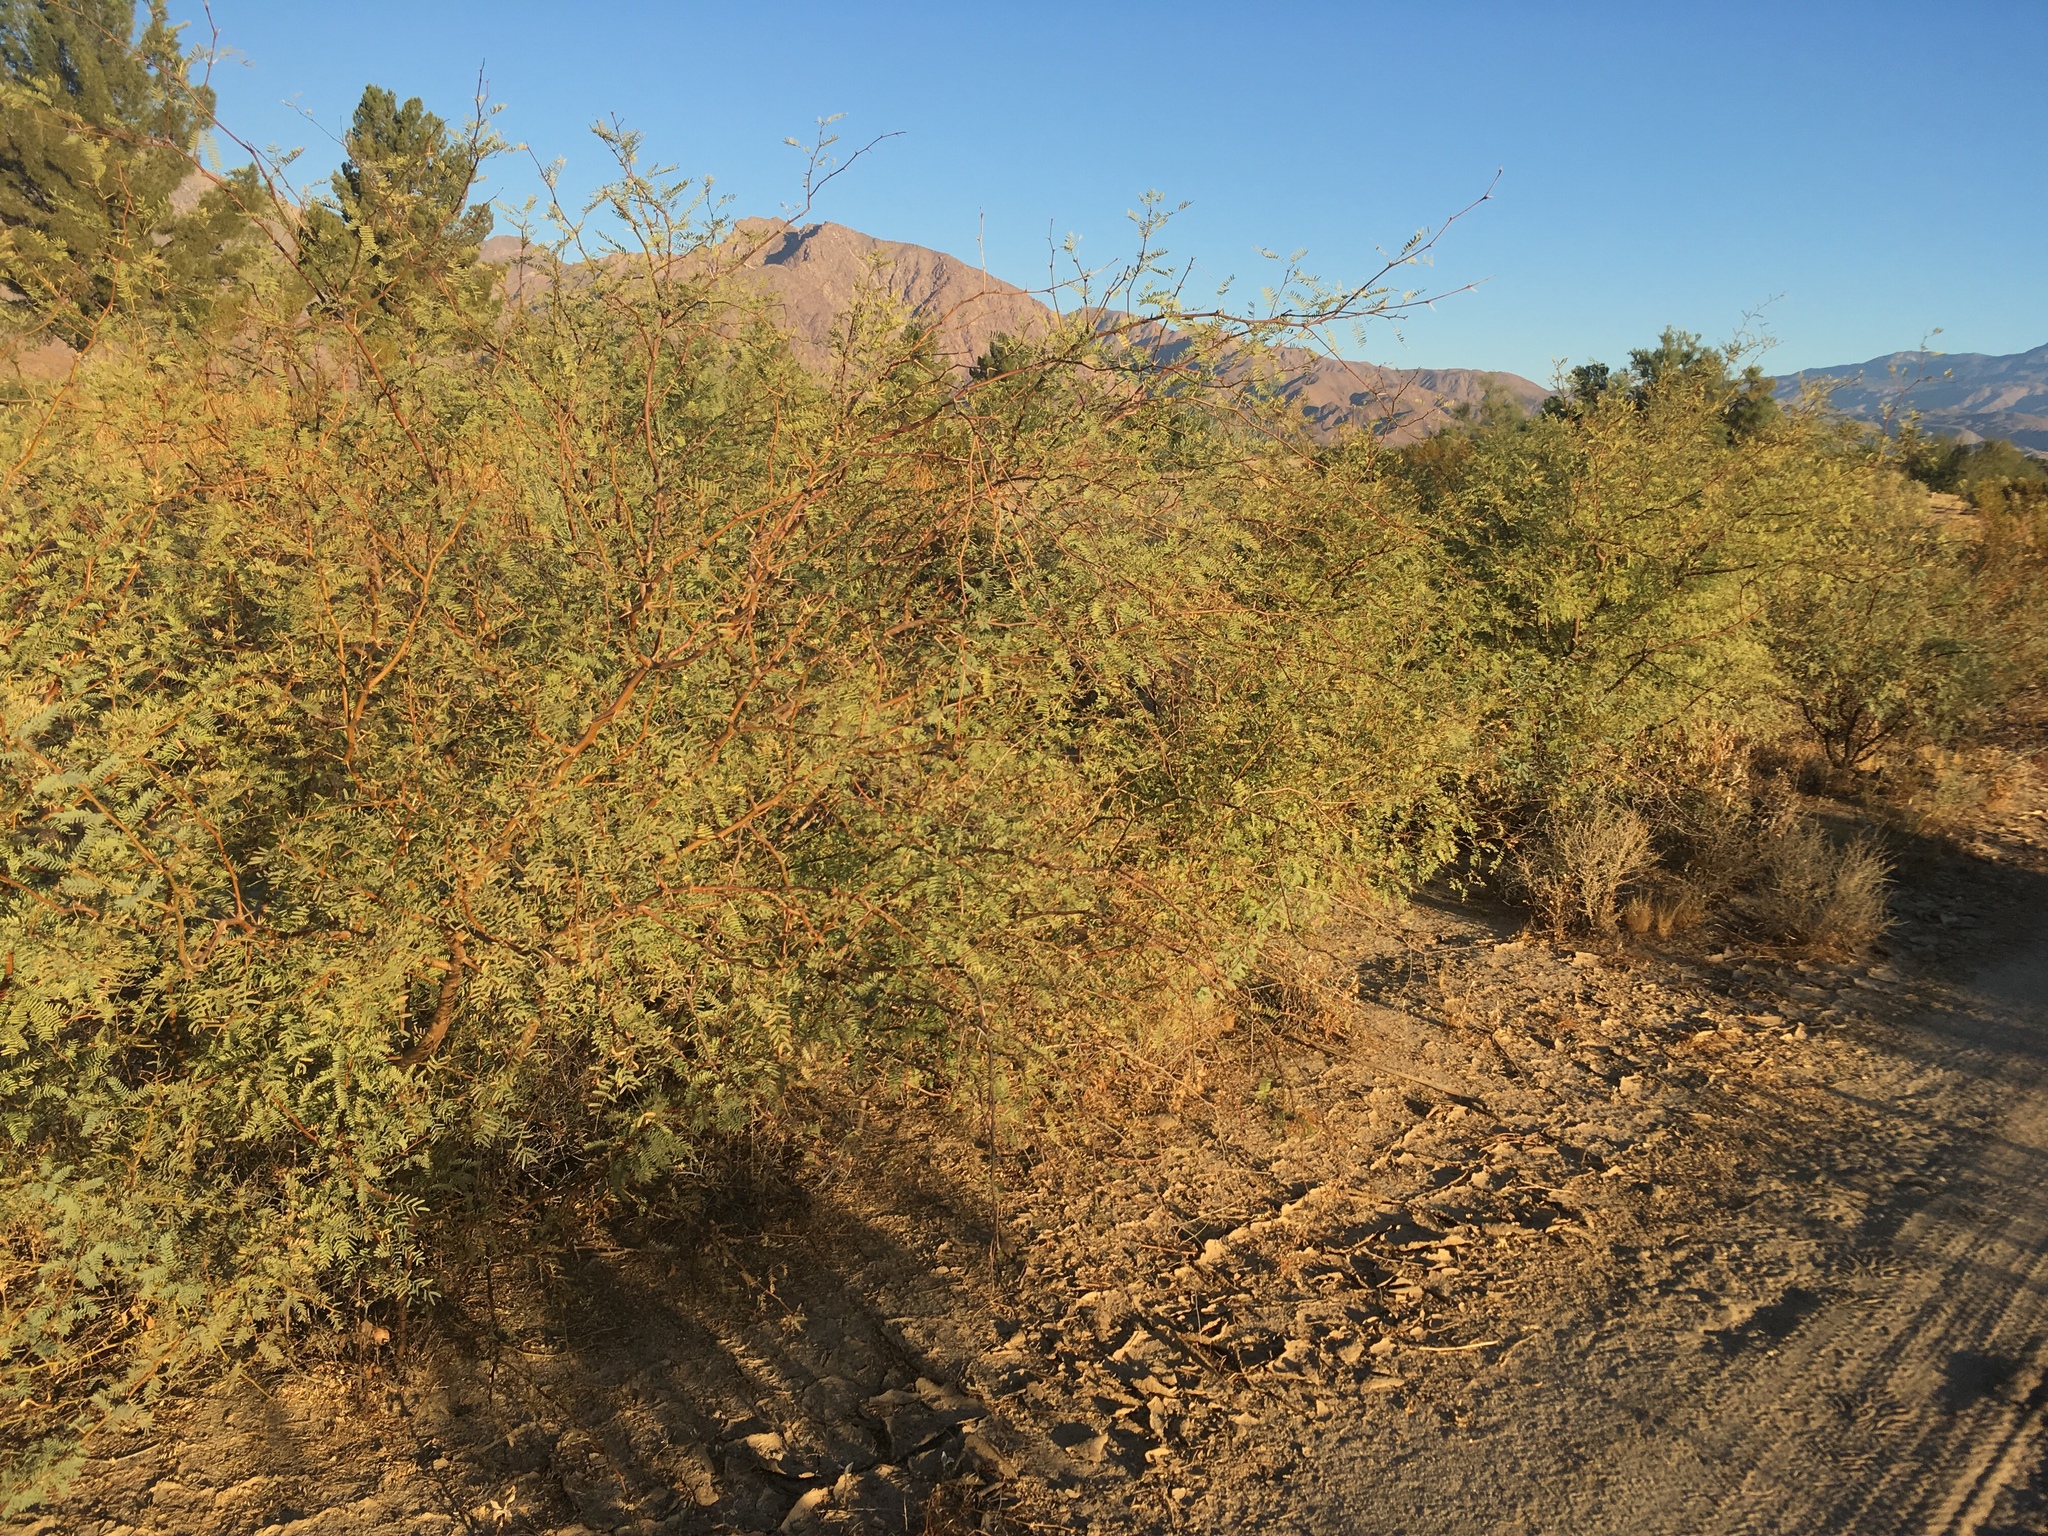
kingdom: Plantae
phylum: Tracheophyta
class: Magnoliopsida
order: Fabales
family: Fabaceae
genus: Prosopis
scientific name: Prosopis pubescens
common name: Screw-bean
